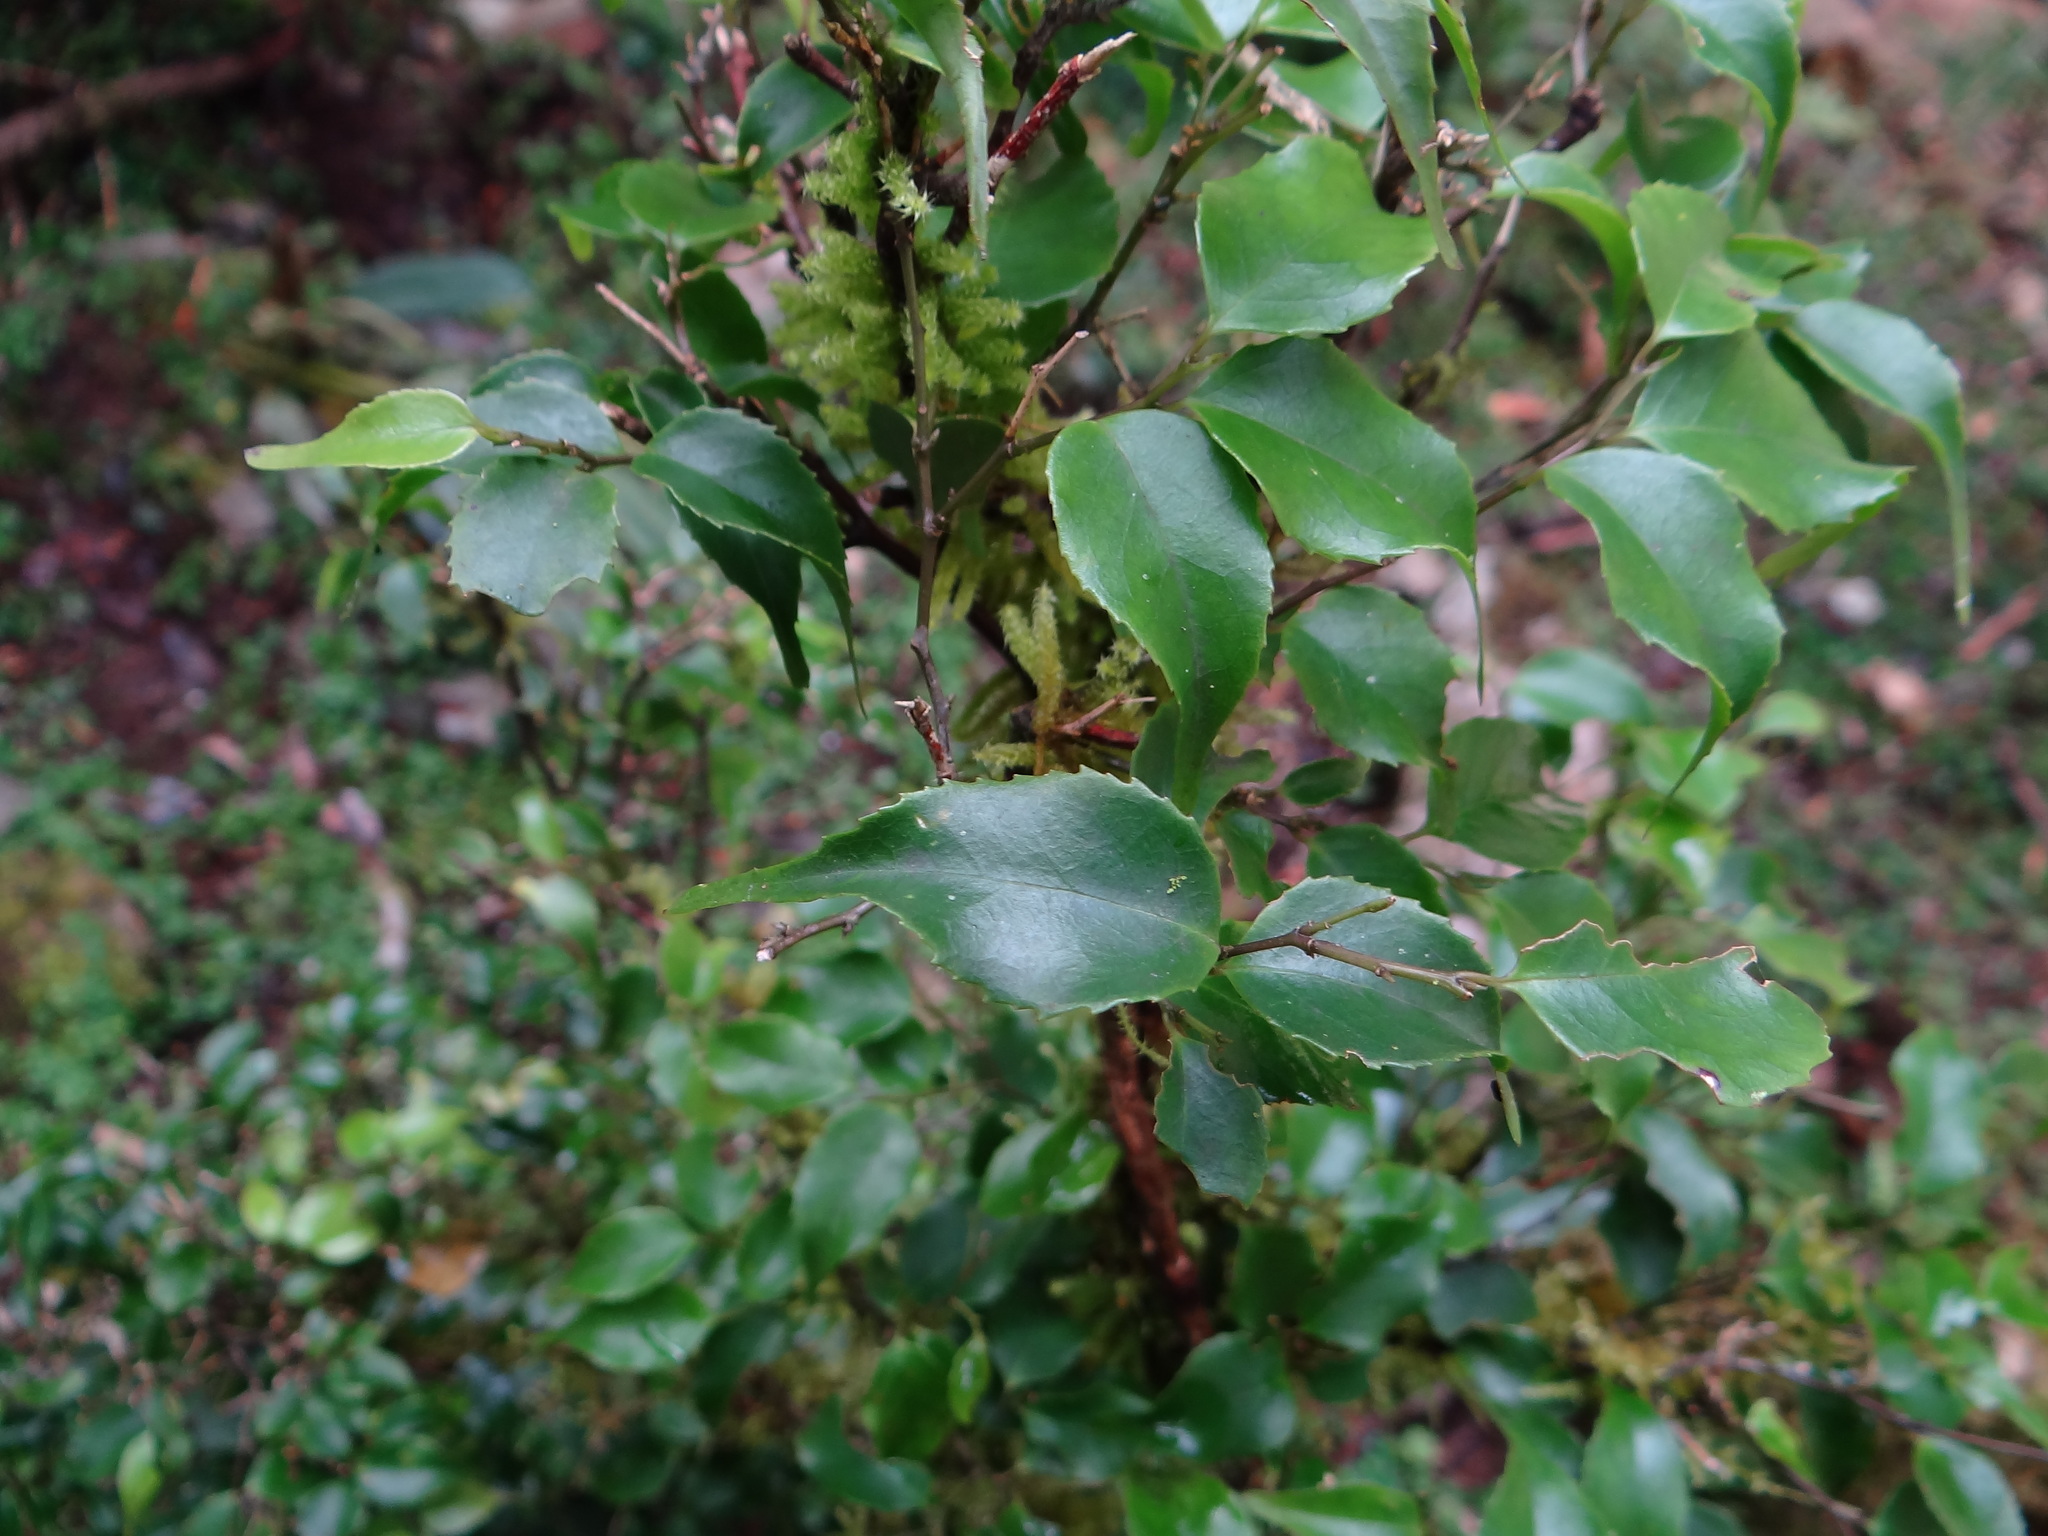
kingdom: Plantae
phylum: Tracheophyta
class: Magnoliopsida
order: Ericales
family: Symplocaceae
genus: Symplocos
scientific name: Symplocos sumuntia
